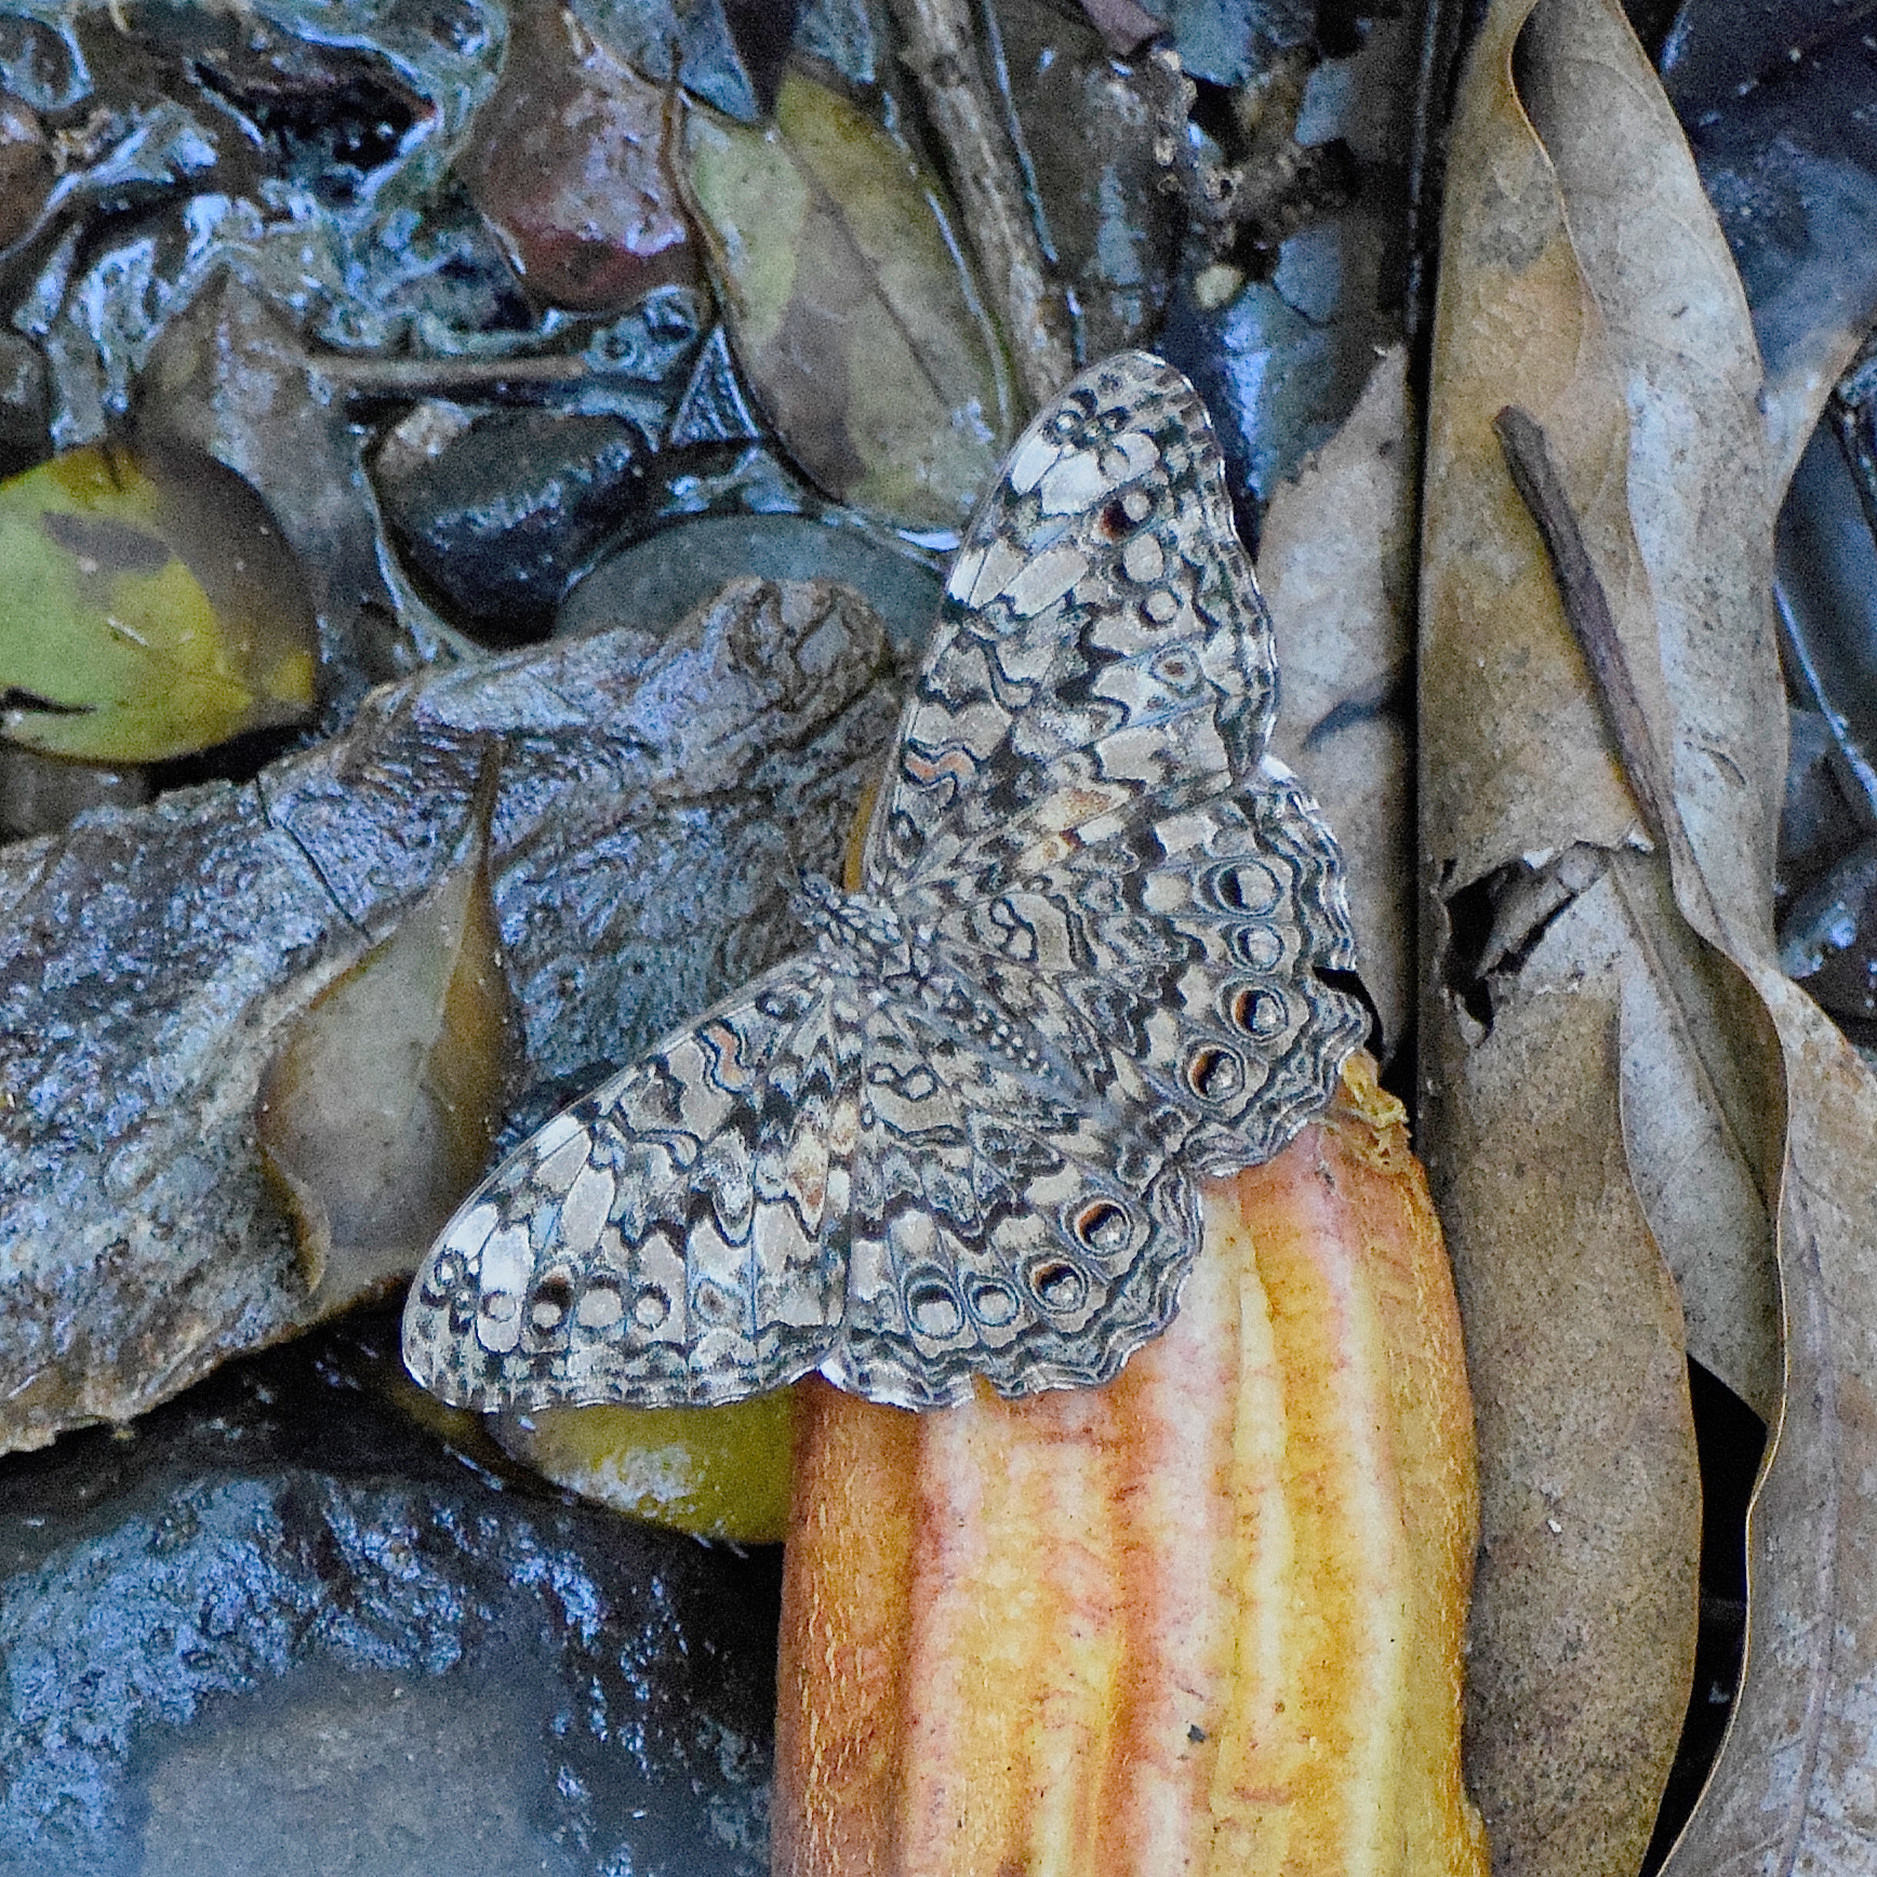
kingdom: Animalia
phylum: Arthropoda
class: Insecta
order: Lepidoptera
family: Nymphalidae
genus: Hamadryas
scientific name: Hamadryas februa
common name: Gray cracker
